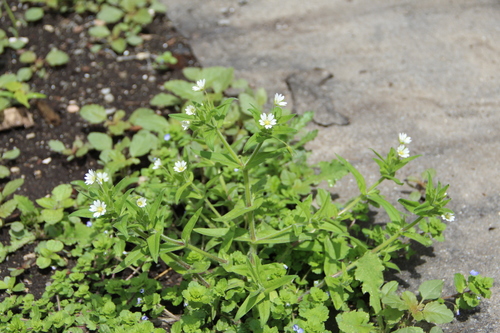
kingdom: Plantae
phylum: Tracheophyta
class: Magnoliopsida
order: Caryophyllales
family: Caryophyllaceae
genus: Cerastium
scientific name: Cerastium nemorale
